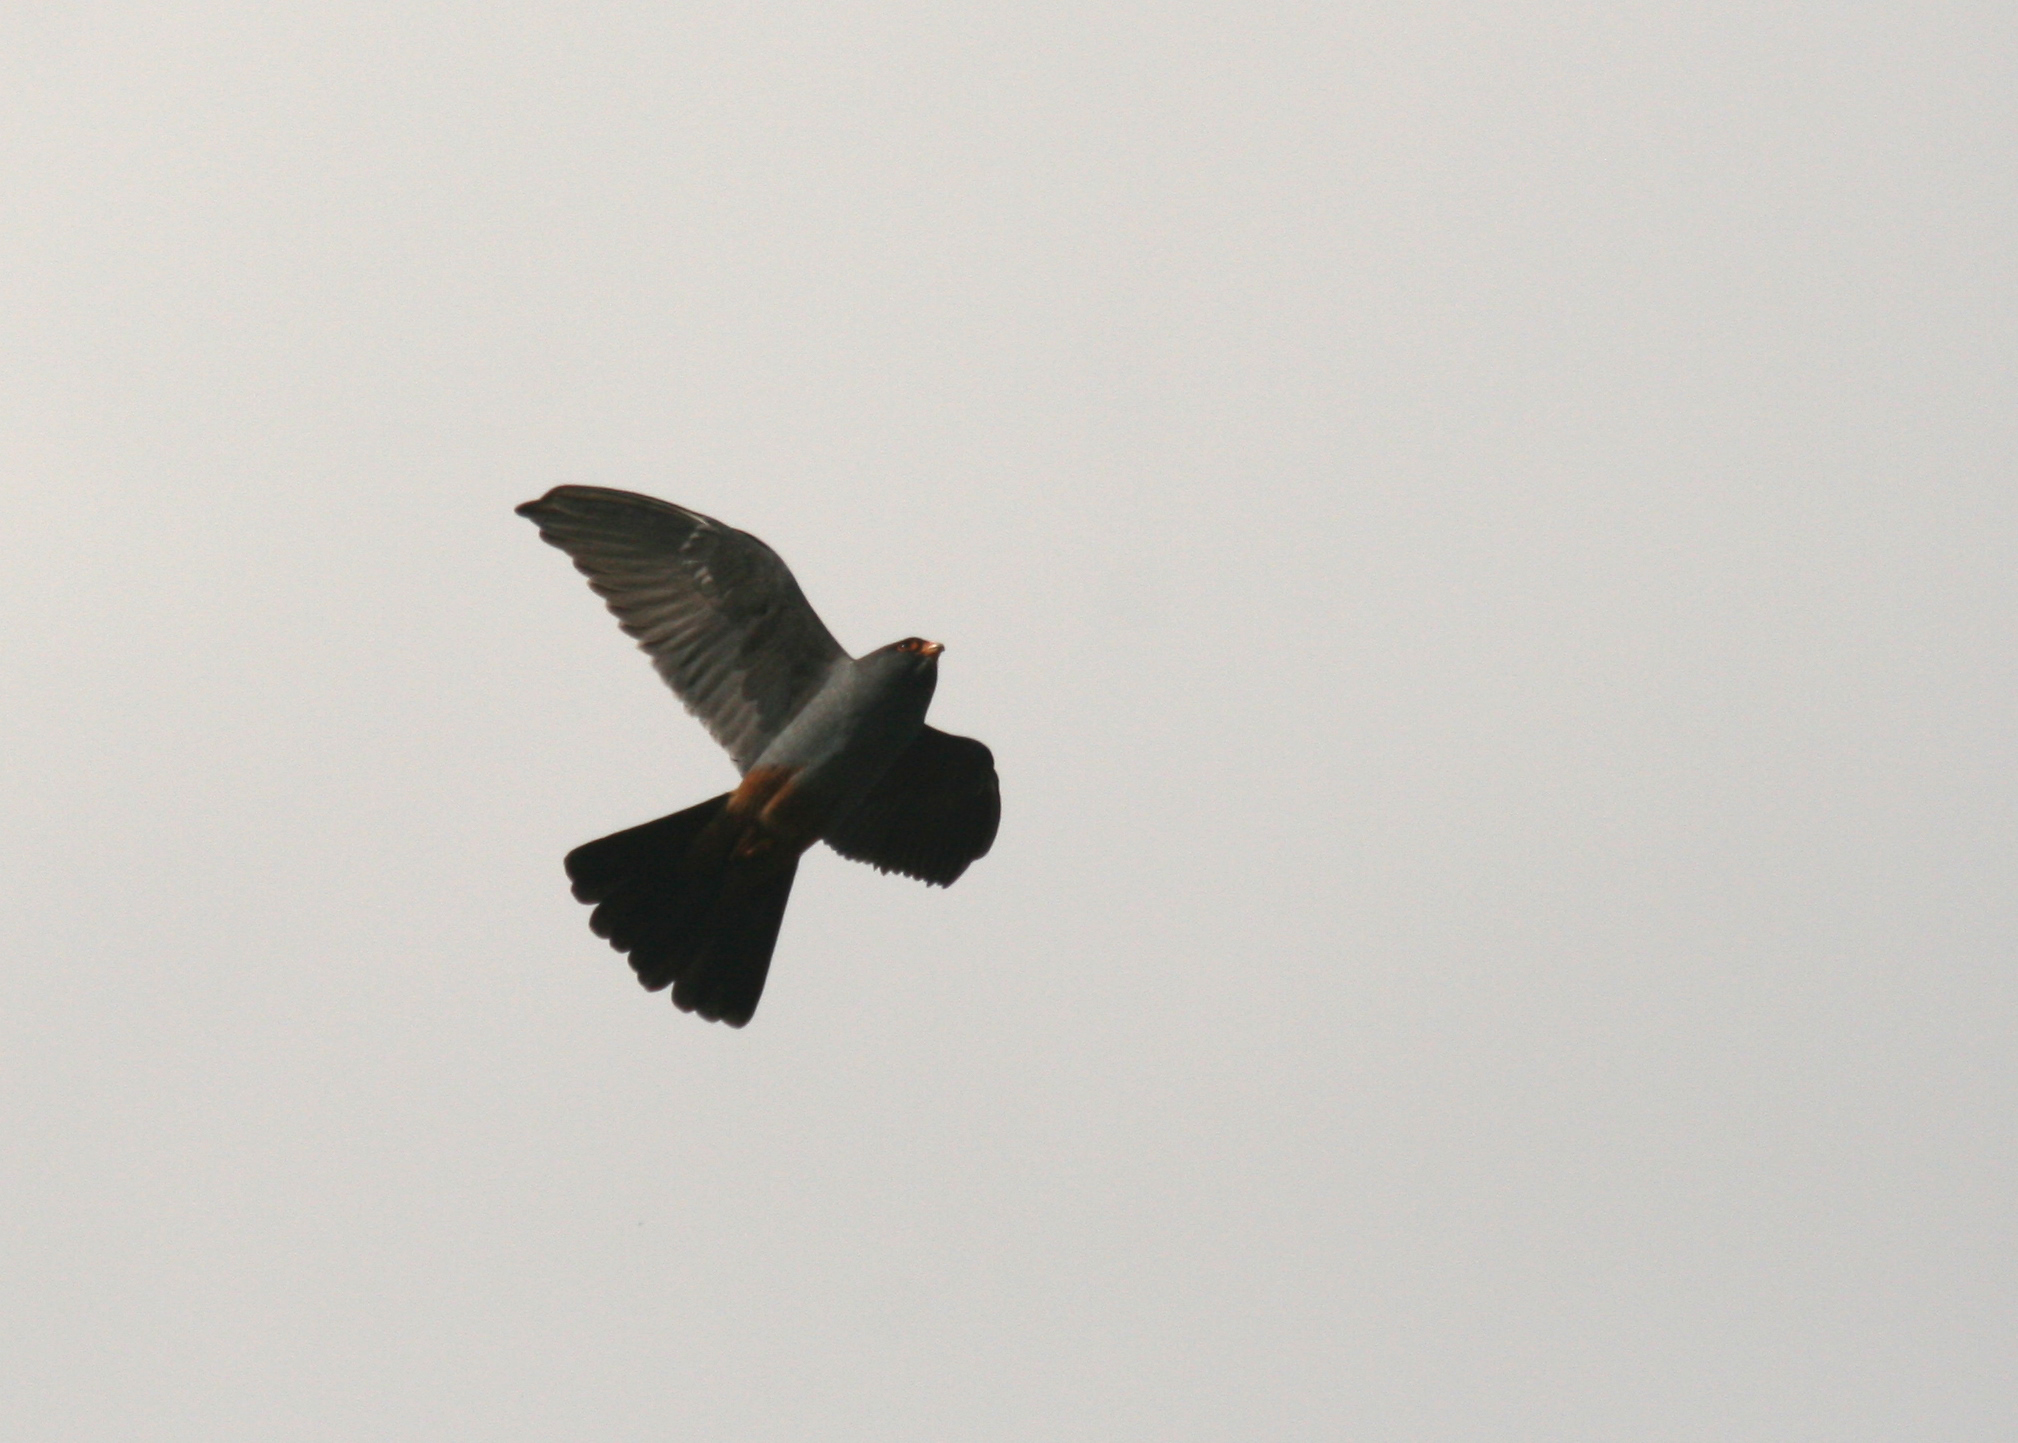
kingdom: Animalia
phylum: Chordata
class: Aves
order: Falconiformes
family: Falconidae
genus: Falco
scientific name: Falco vespertinus
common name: Red-footed falcon
